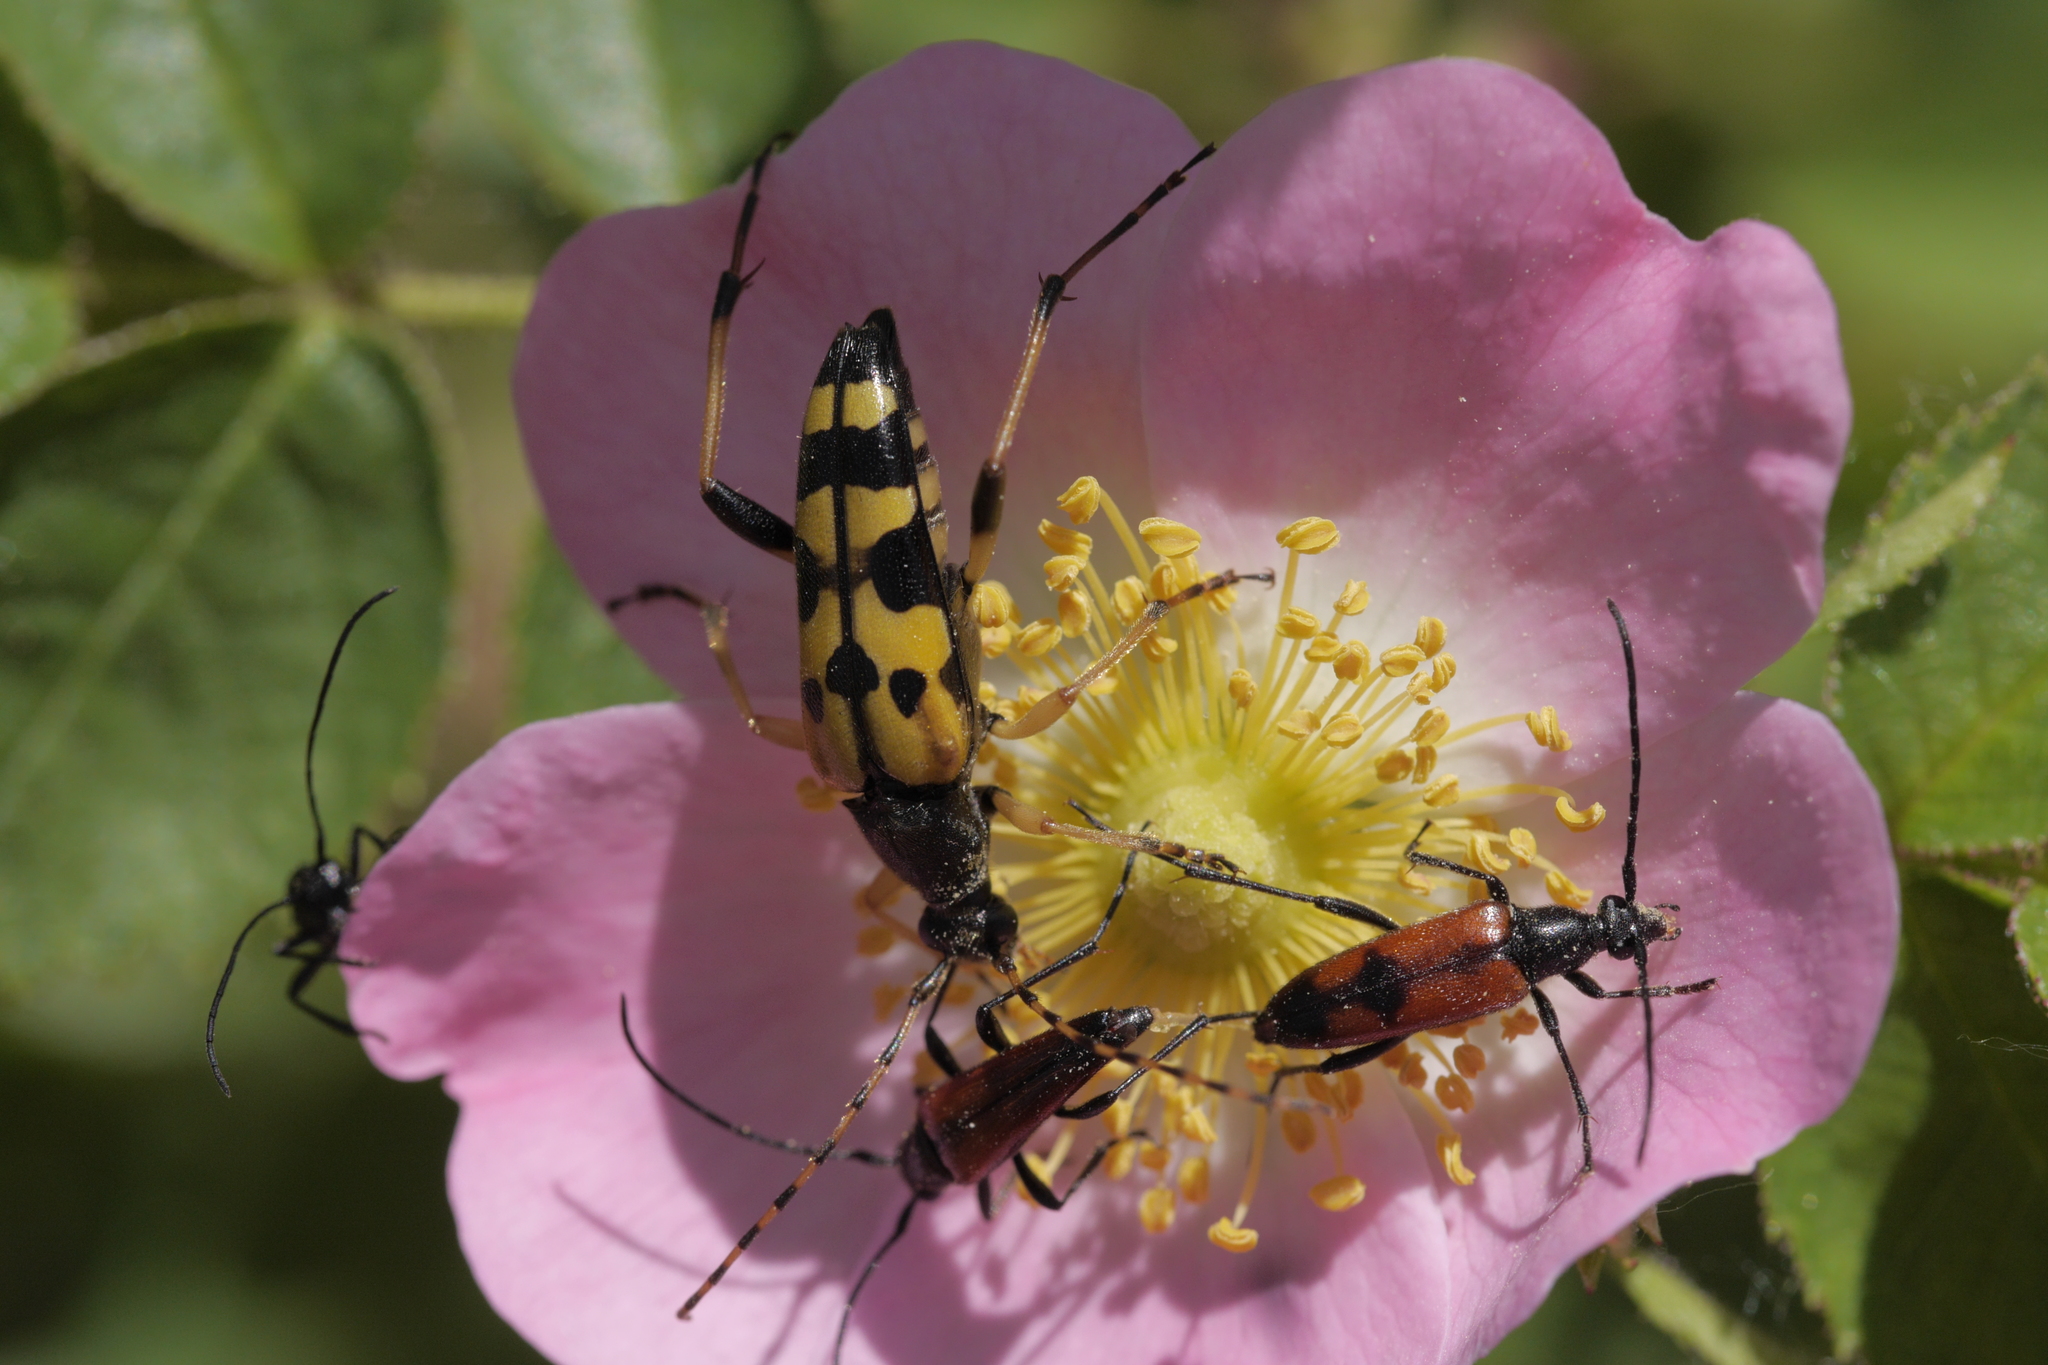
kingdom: Animalia
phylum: Arthropoda
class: Insecta
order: Coleoptera
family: Cerambycidae
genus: Stenurella
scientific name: Stenurella bifasciata
